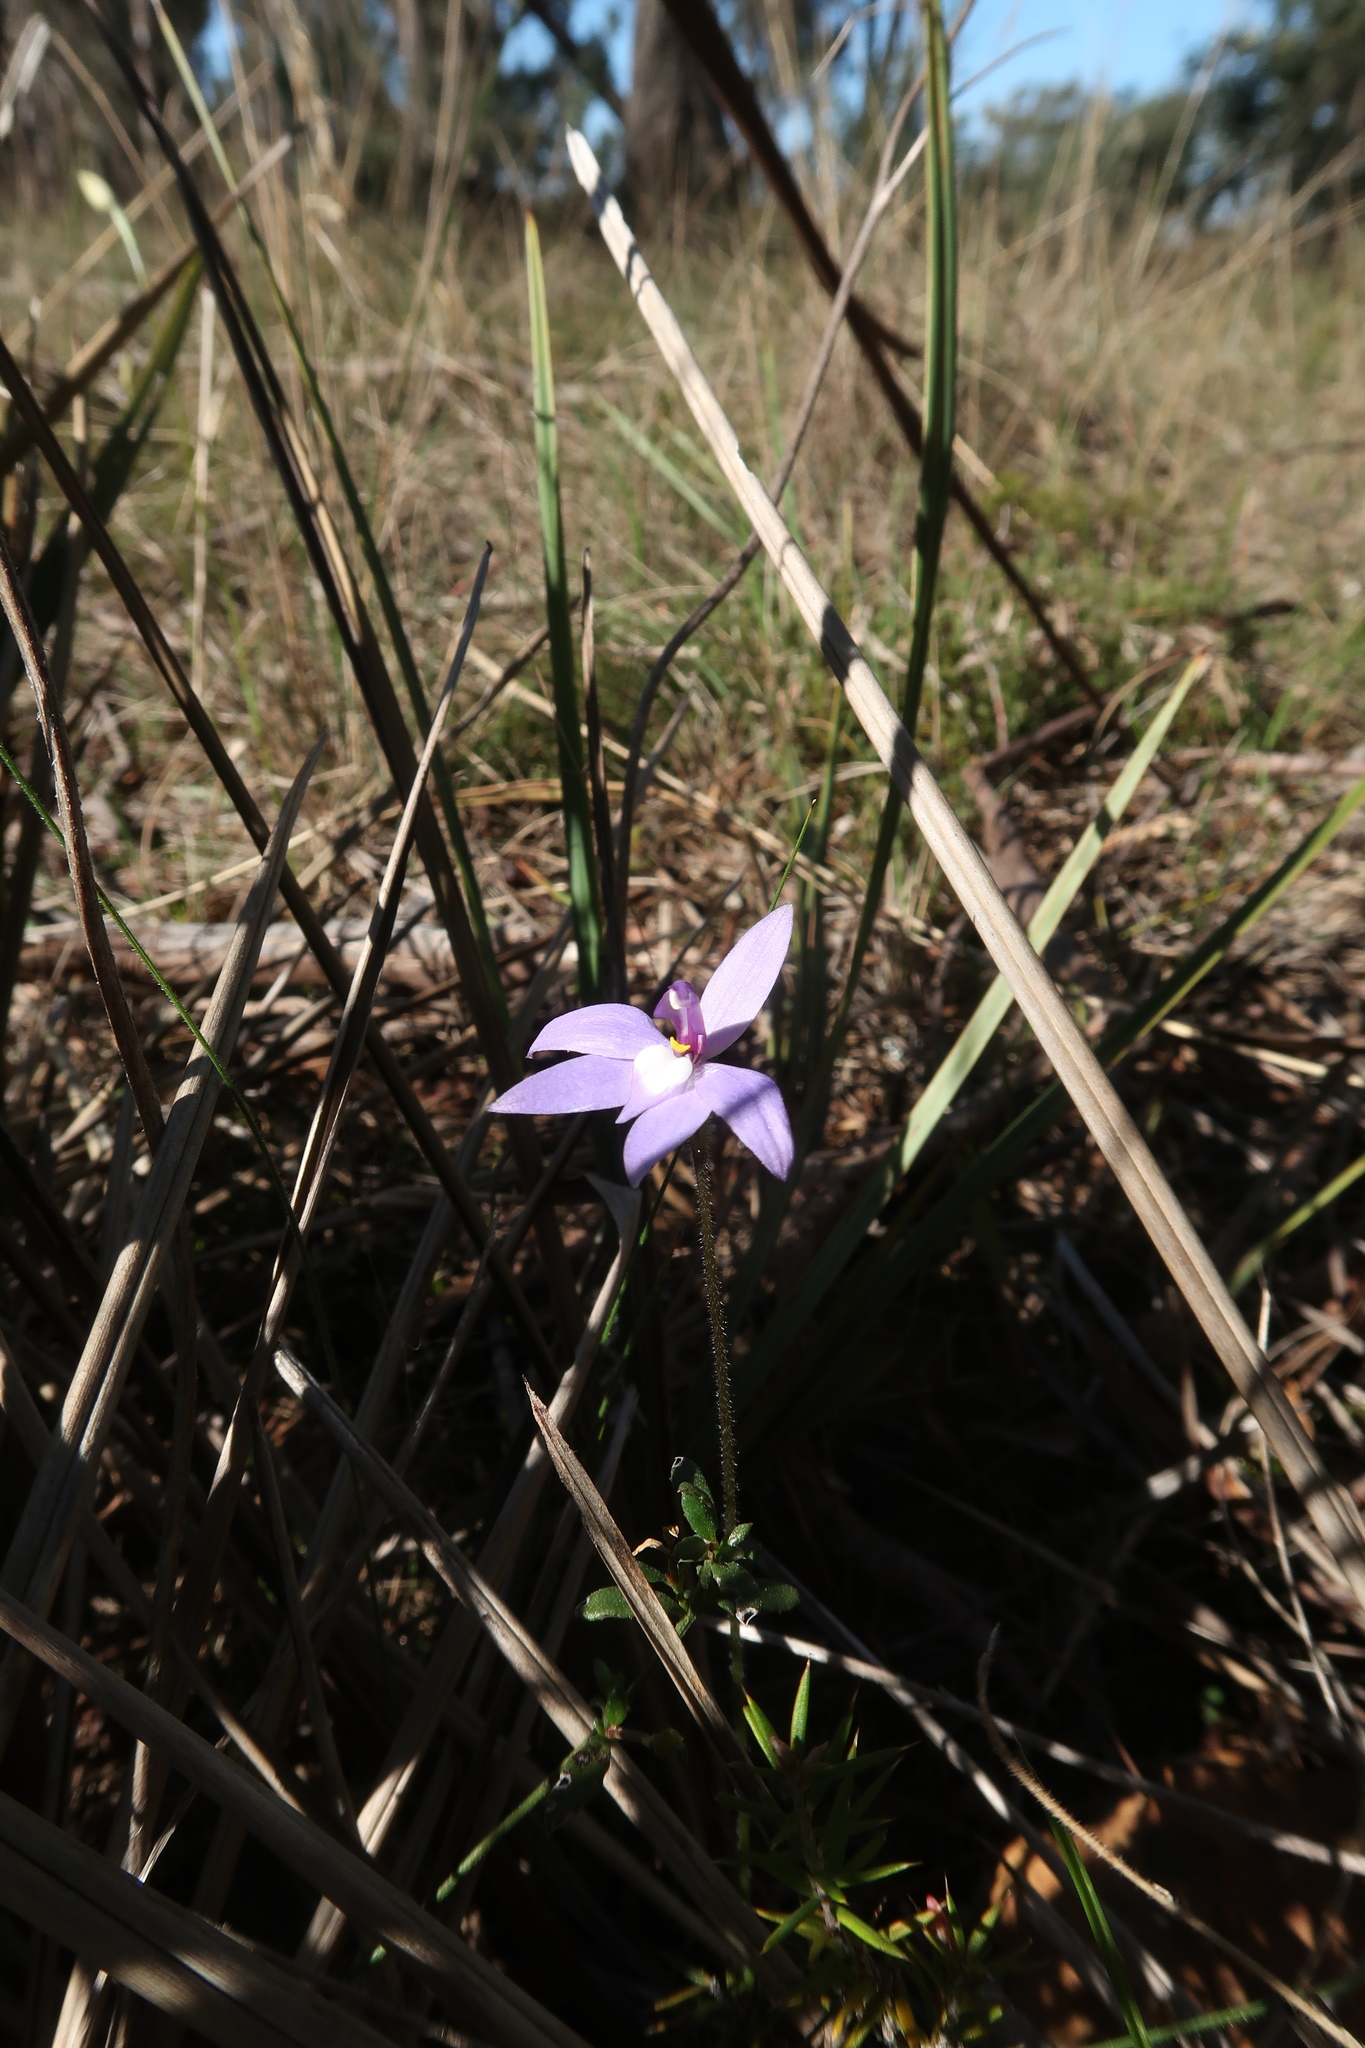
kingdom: Plantae
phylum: Tracheophyta
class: Liliopsida
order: Asparagales
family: Orchidaceae
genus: Caladenia
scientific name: Caladenia major
